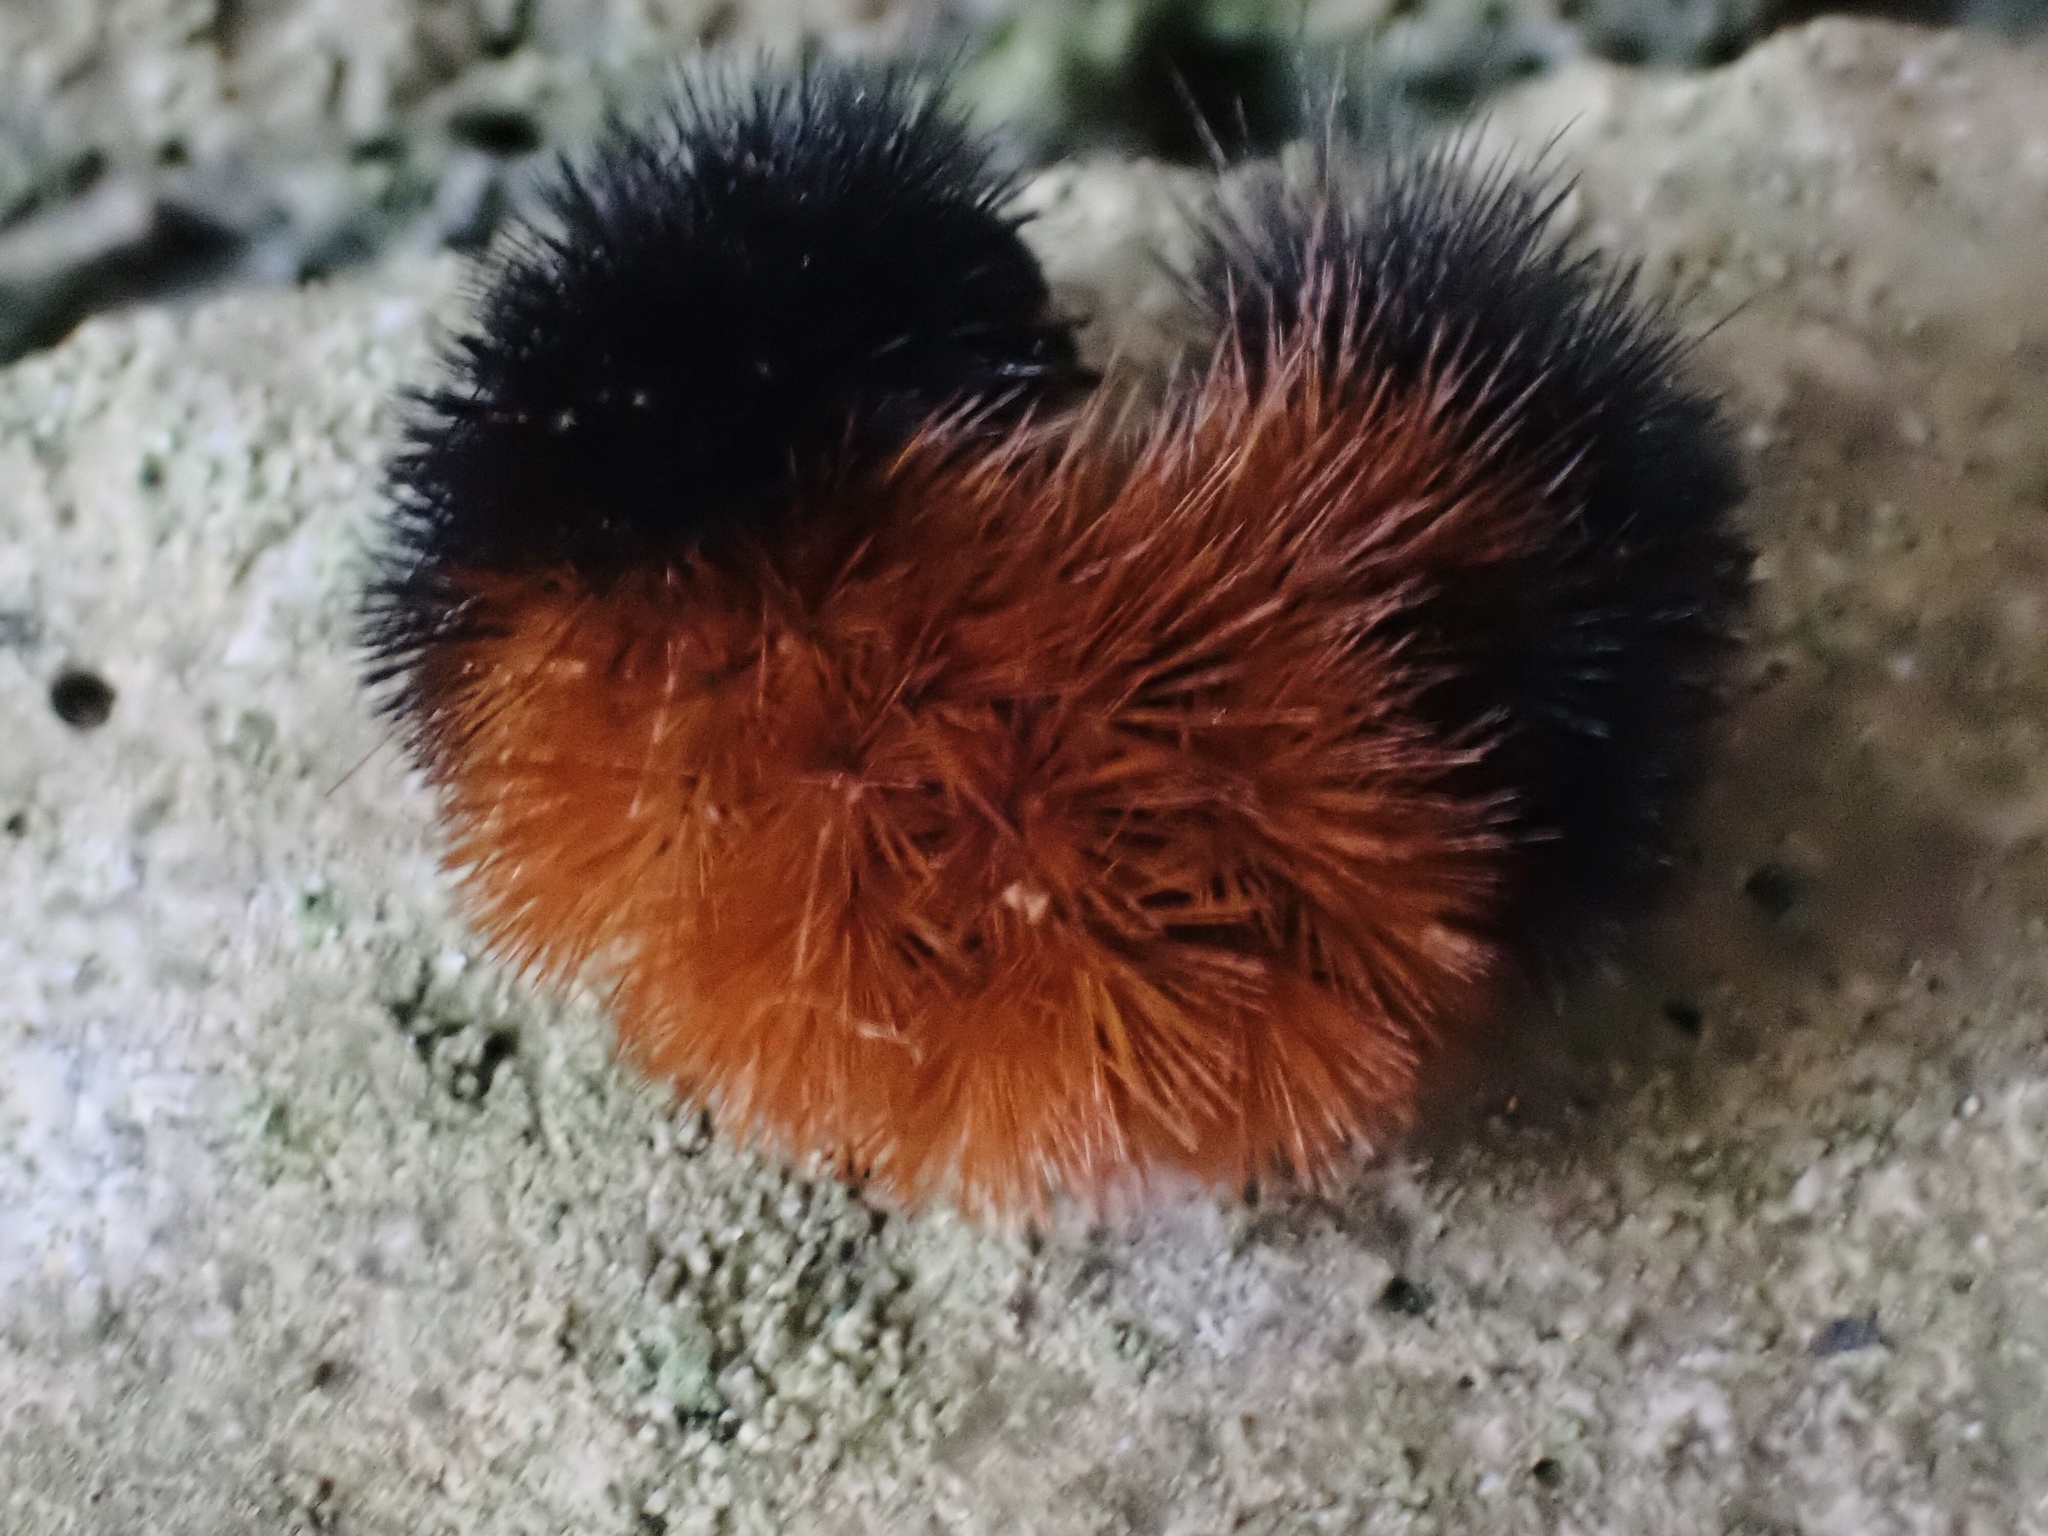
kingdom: Animalia
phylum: Arthropoda
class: Insecta
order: Lepidoptera
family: Erebidae
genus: Pyrrharctia
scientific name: Pyrrharctia isabella
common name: Isabella tiger moth
